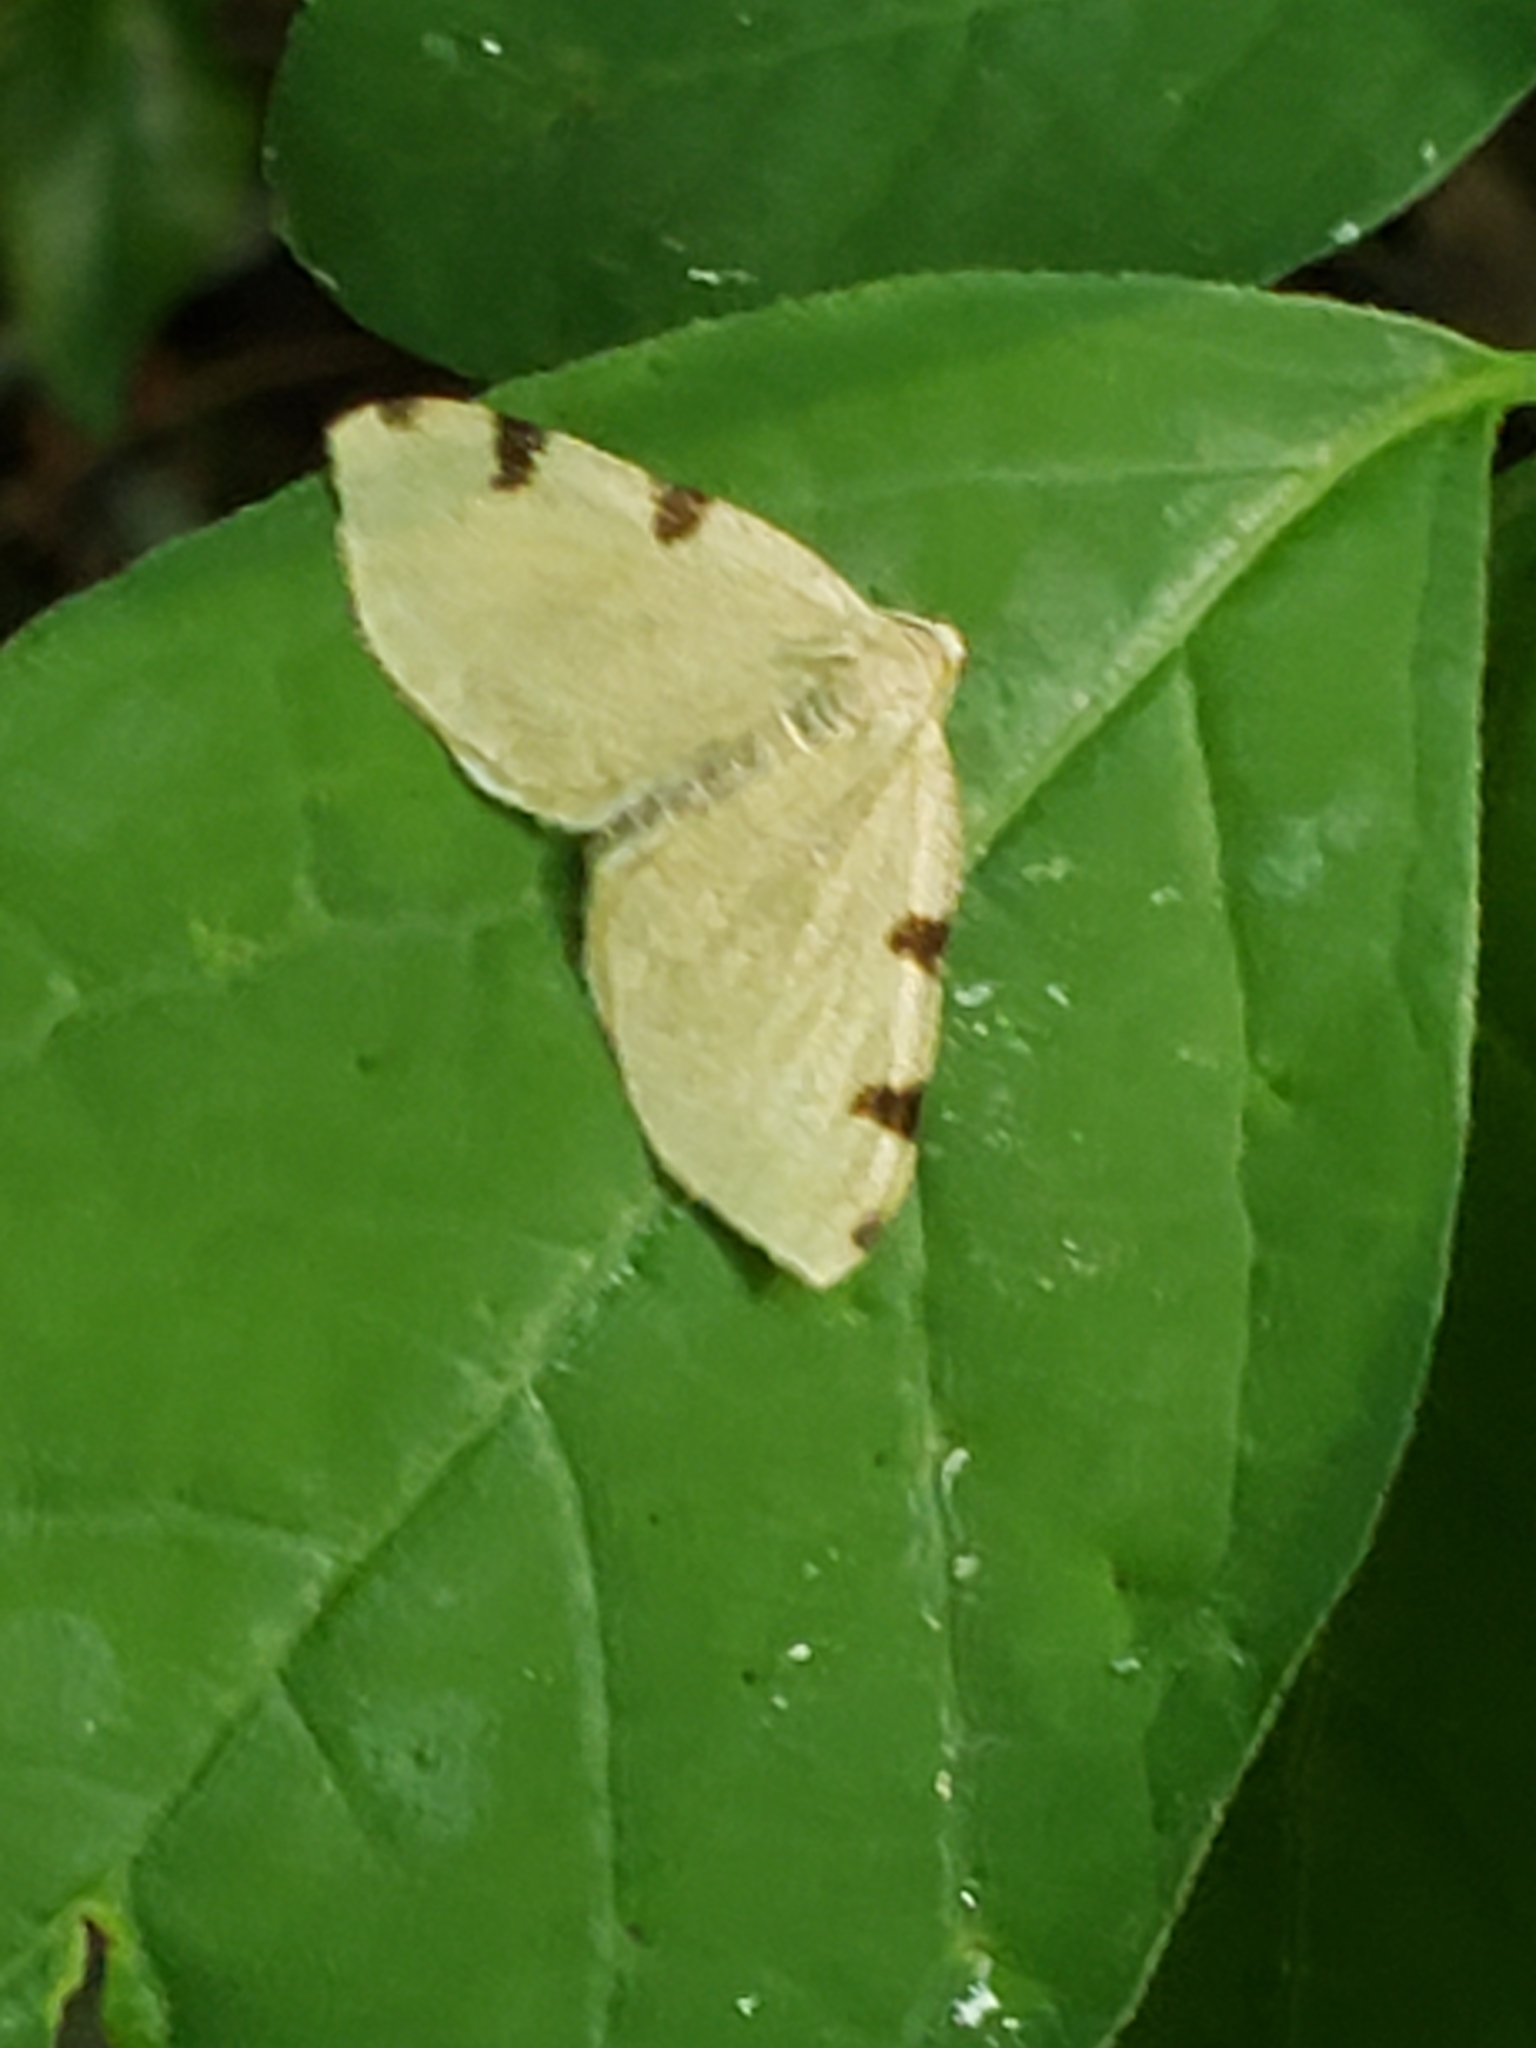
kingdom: Animalia
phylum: Arthropoda
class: Insecta
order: Lepidoptera
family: Geometridae
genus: Heterophleps
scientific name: Heterophleps triguttaria
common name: Three-spotted fillip
